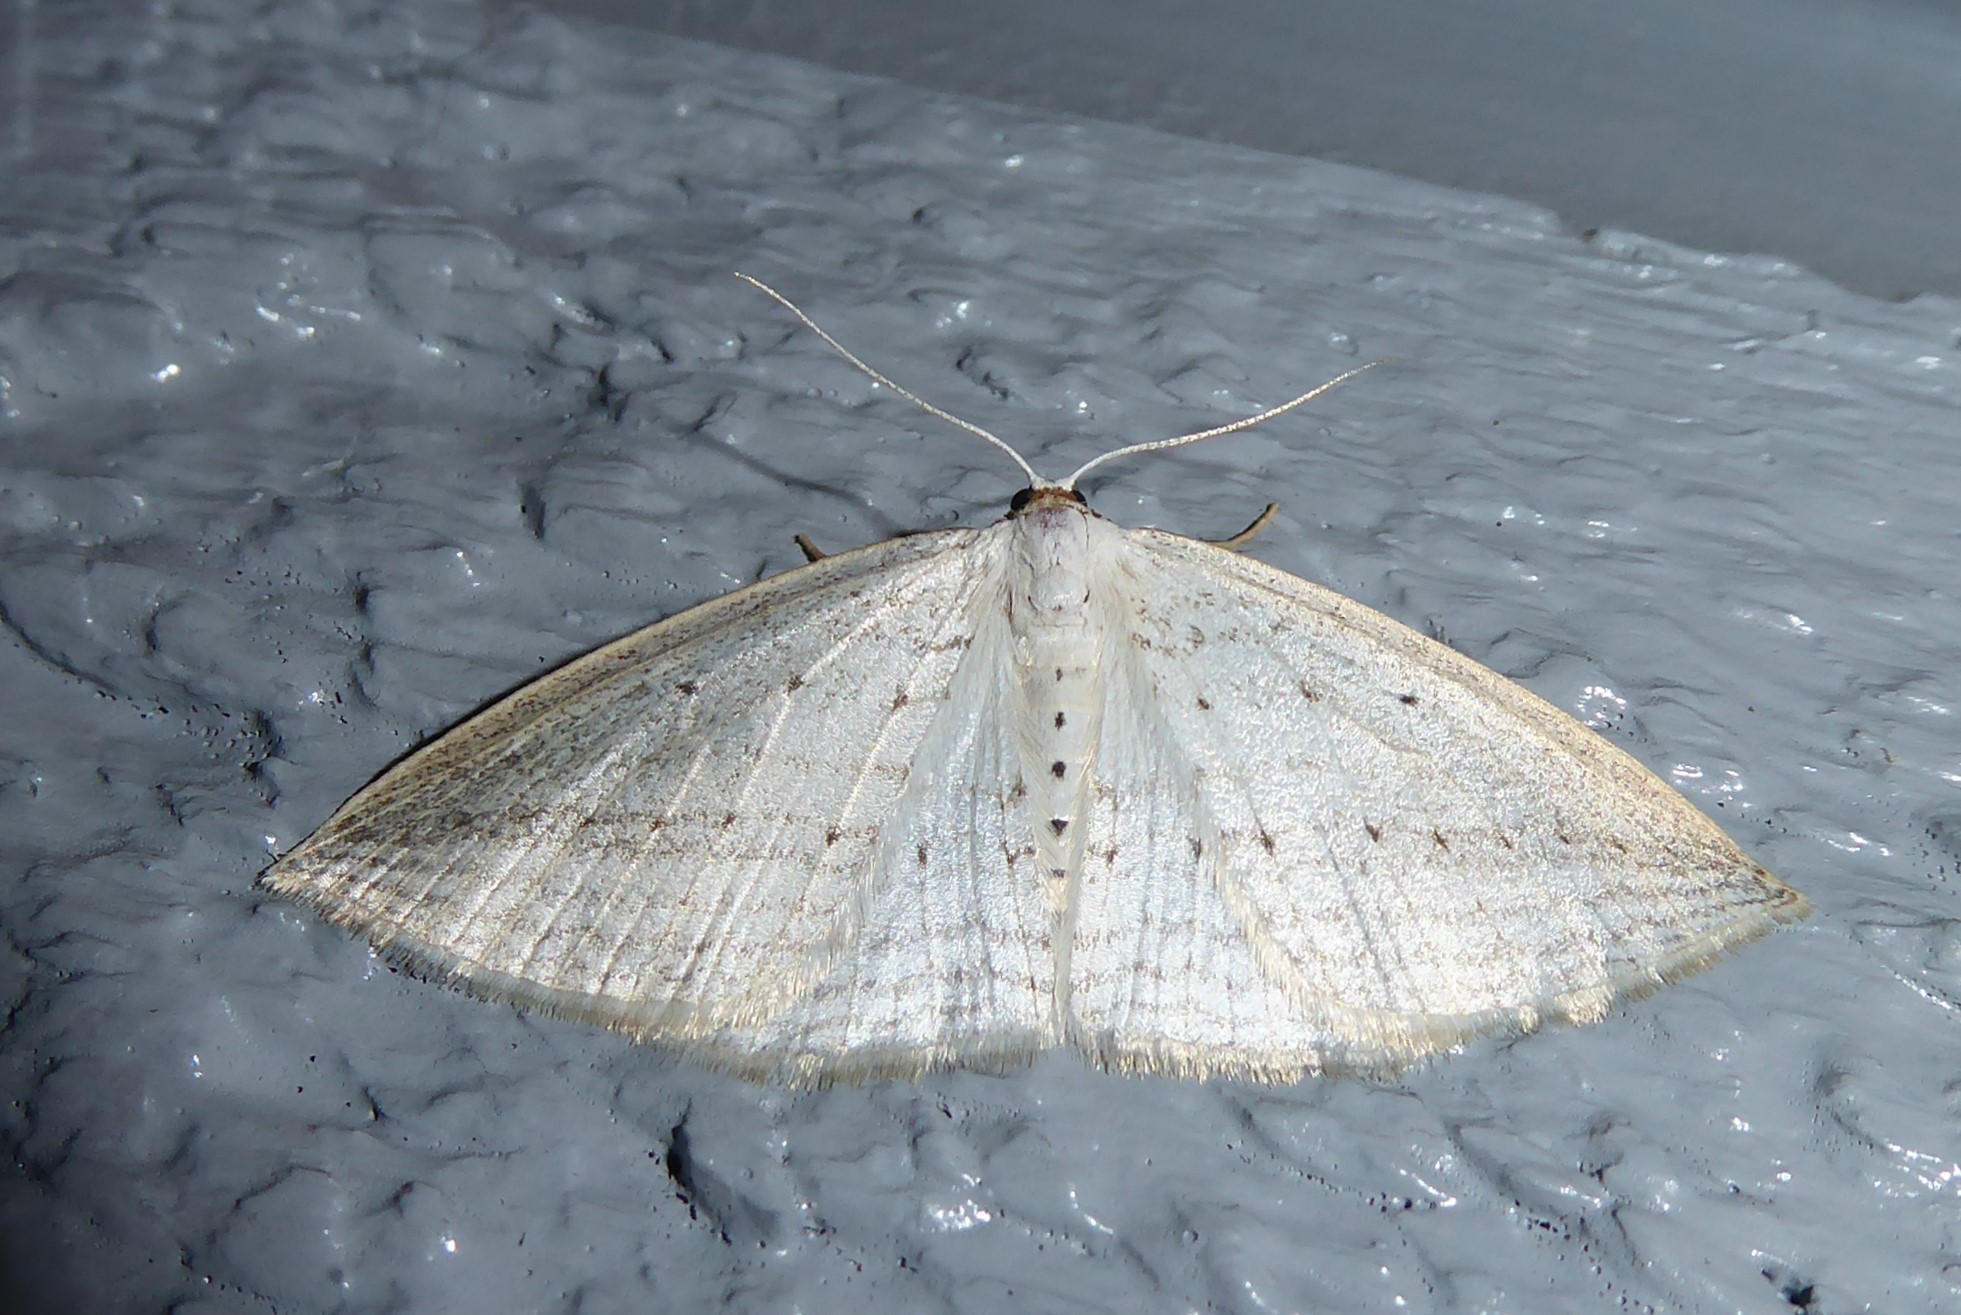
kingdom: Animalia
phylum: Arthropoda
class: Insecta
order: Lepidoptera
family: Geometridae
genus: Orthoclydon
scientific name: Orthoclydon praefectata
